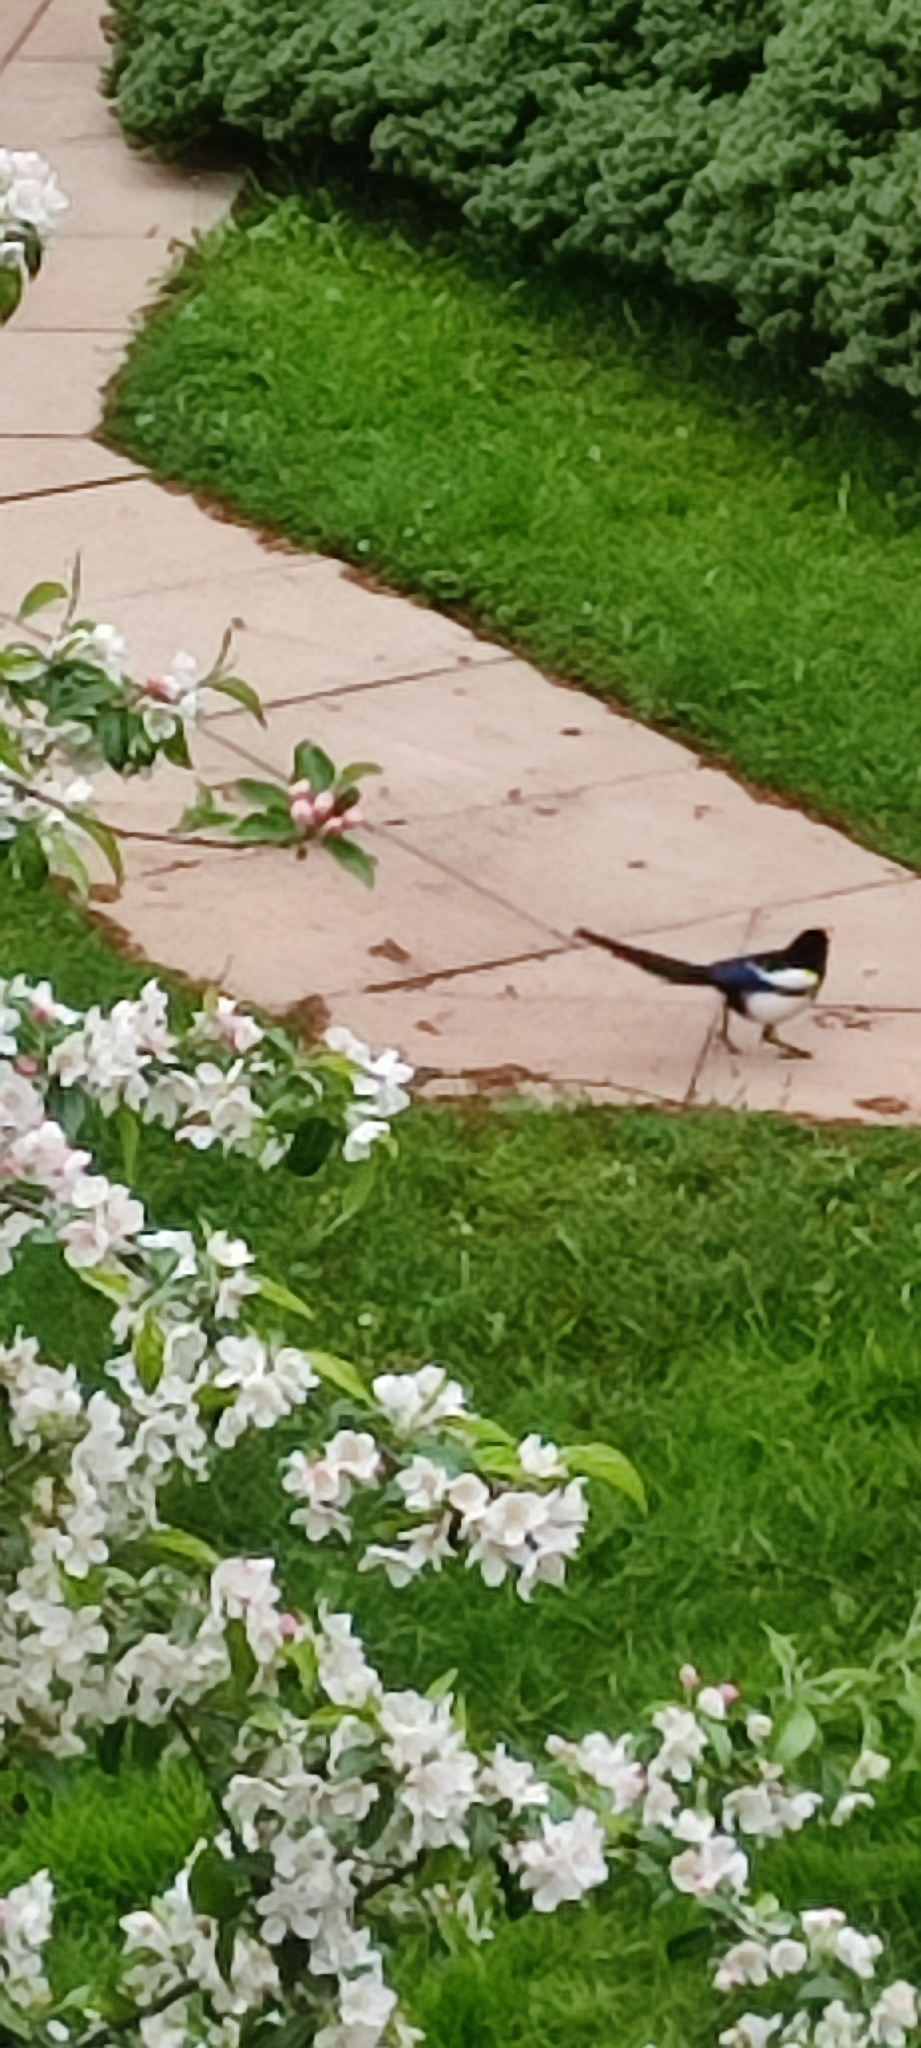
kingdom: Animalia
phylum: Chordata
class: Aves
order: Passeriformes
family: Corvidae
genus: Pica
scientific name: Pica pica
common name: Eurasian magpie
